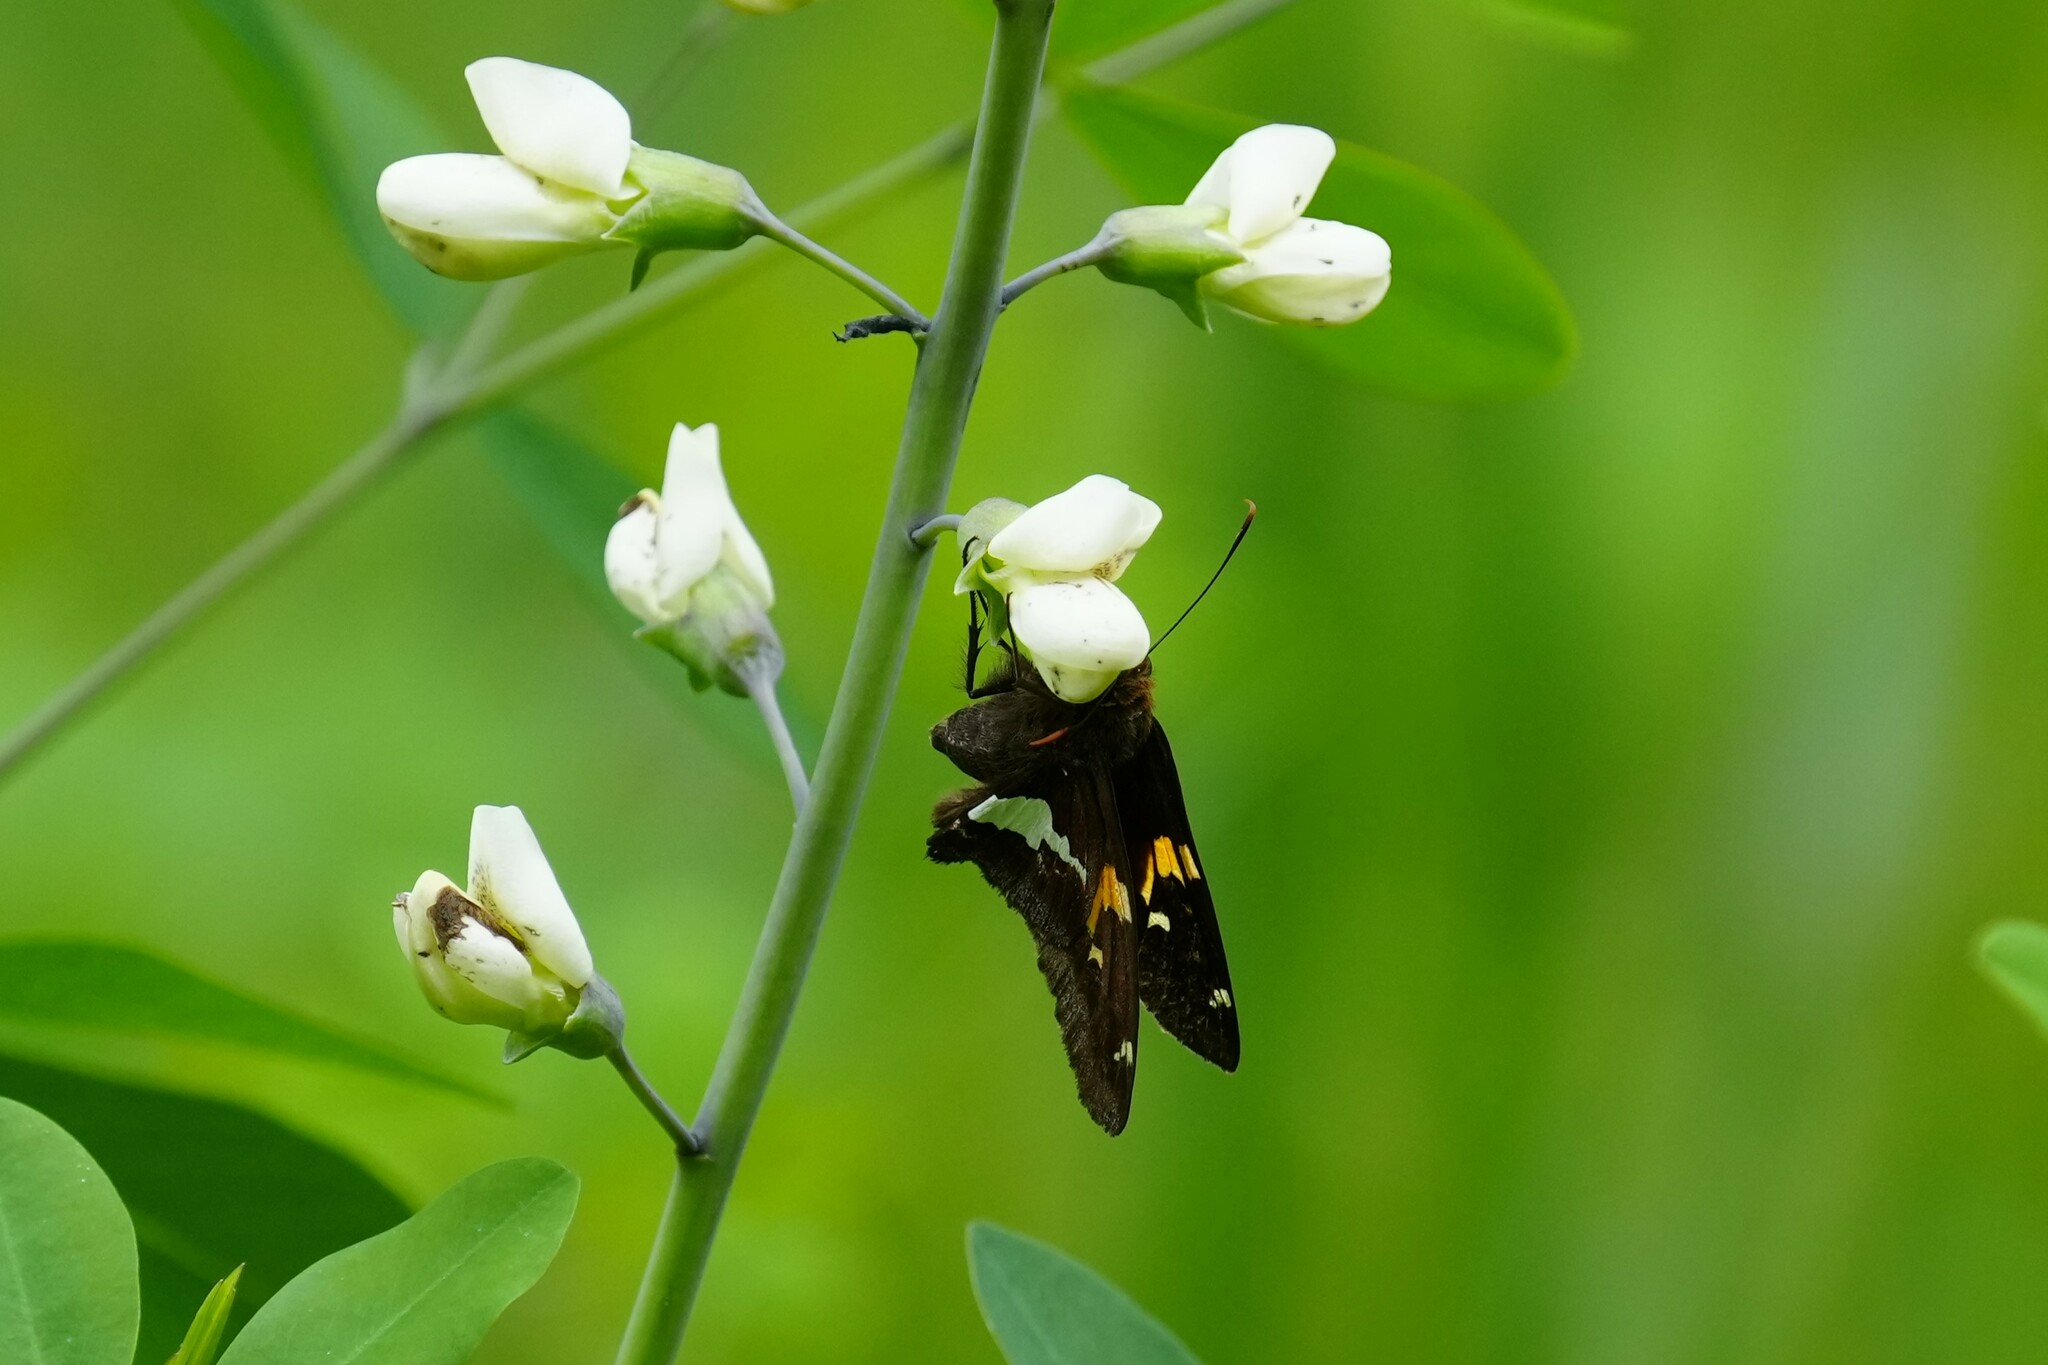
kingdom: Animalia
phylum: Arthropoda
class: Insecta
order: Lepidoptera
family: Hesperiidae
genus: Epargyreus
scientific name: Epargyreus clarus
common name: Silver-spotted skipper
